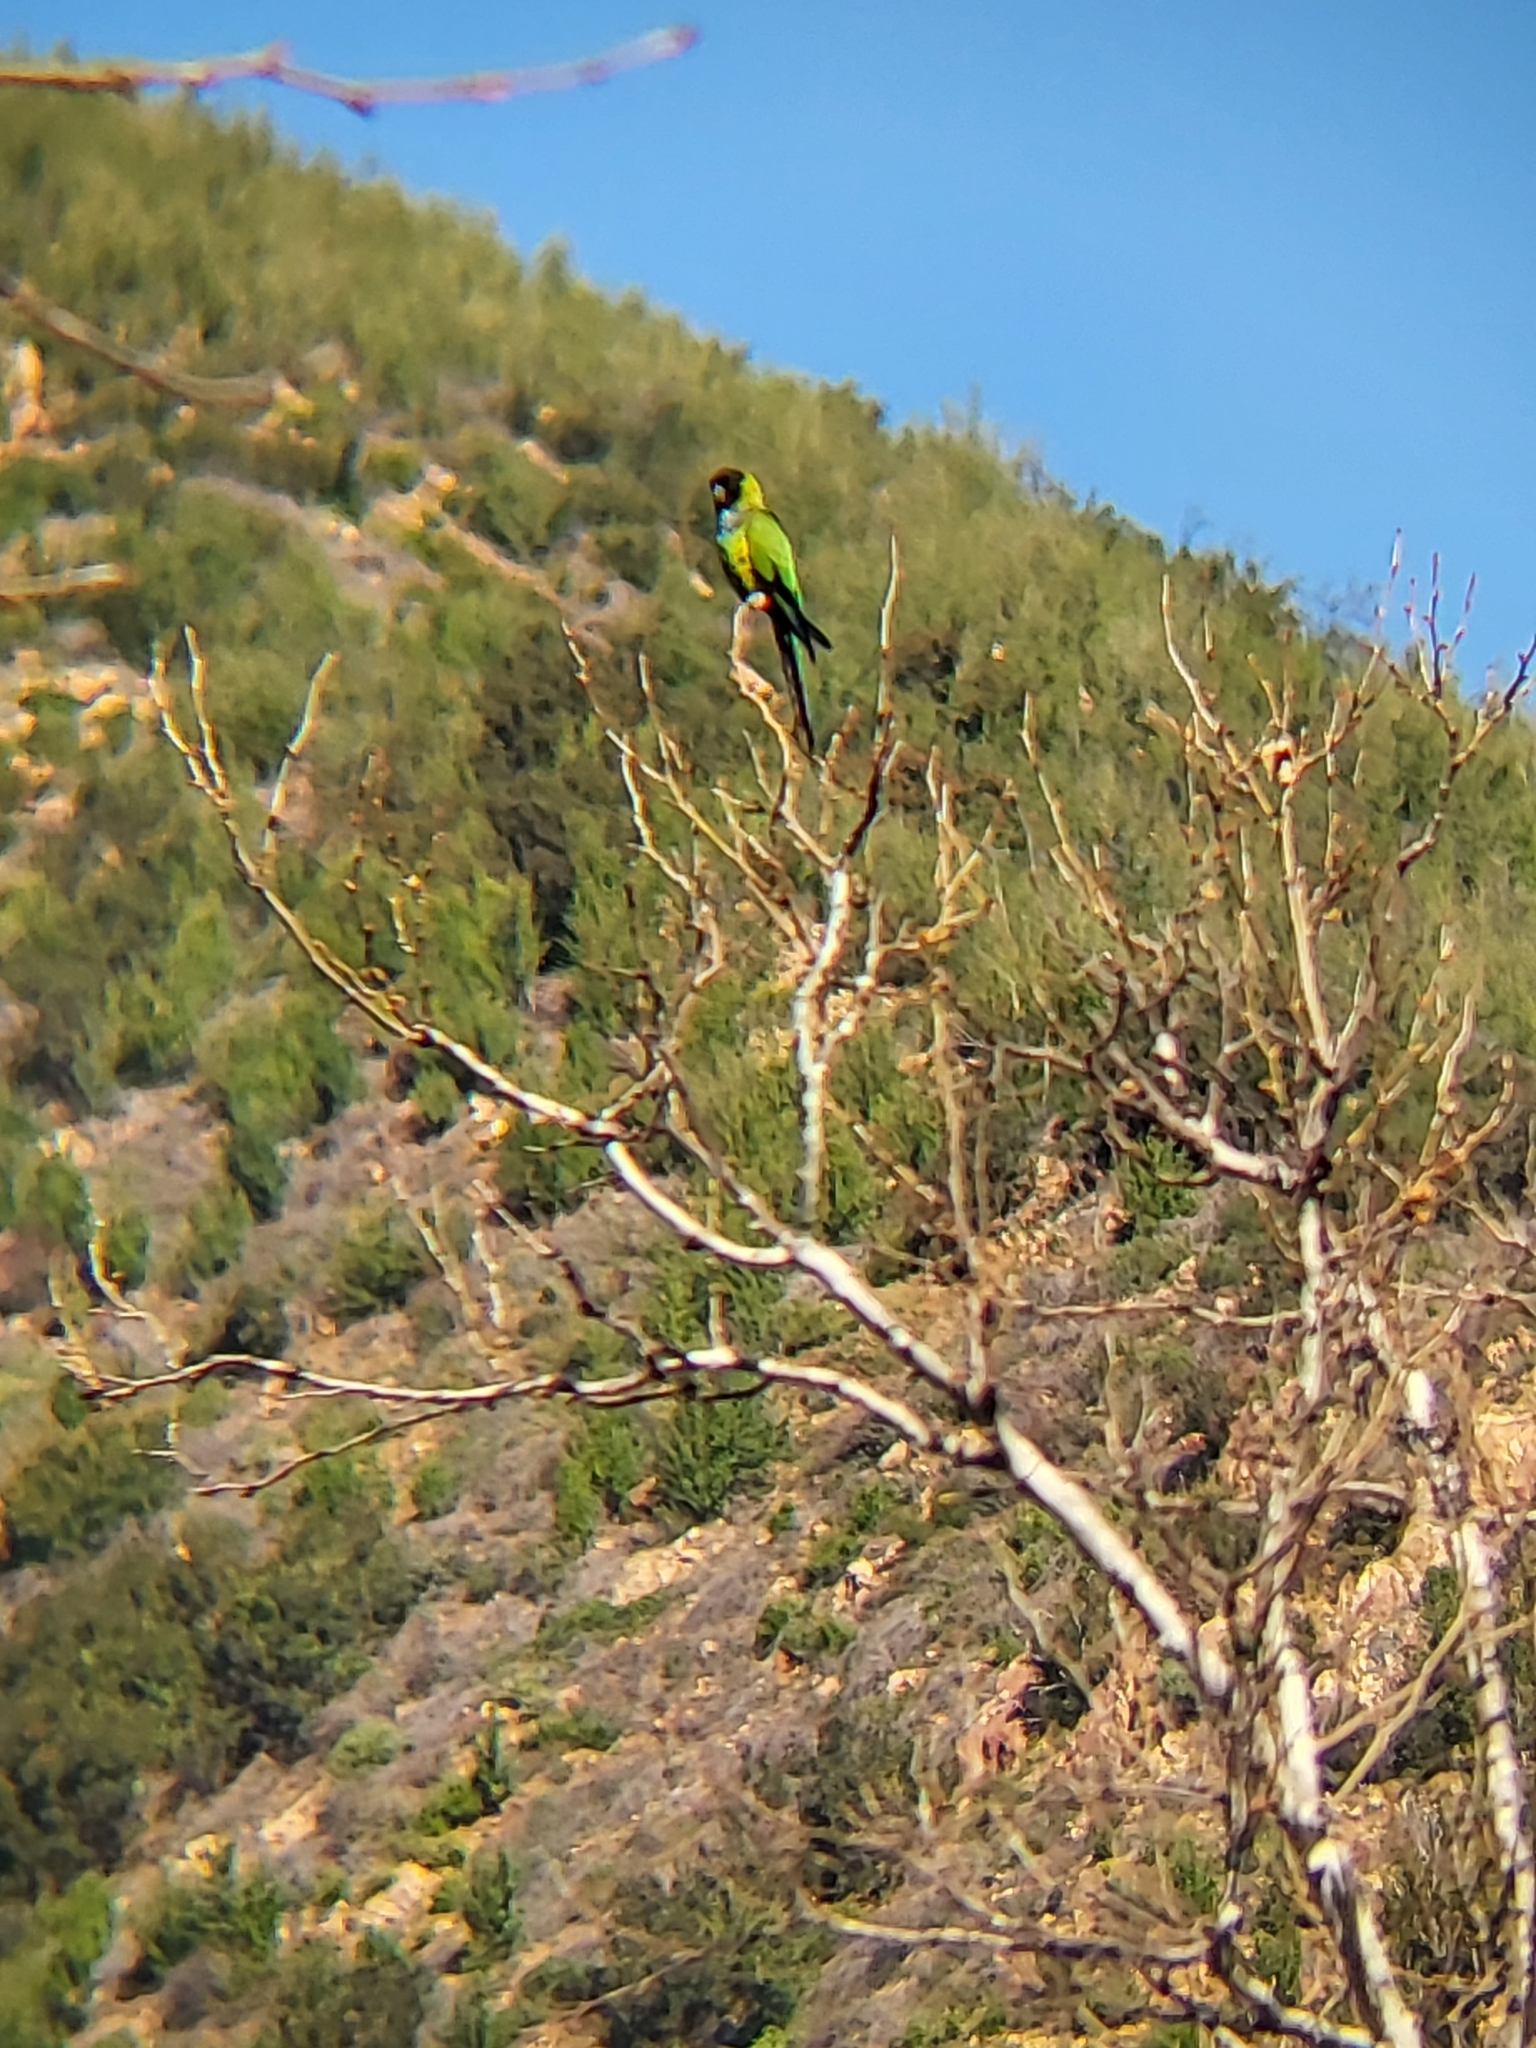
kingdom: Animalia
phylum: Chordata
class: Aves
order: Psittaciformes
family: Psittacidae
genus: Nandayus
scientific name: Nandayus nenday
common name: Nanday parakeet
